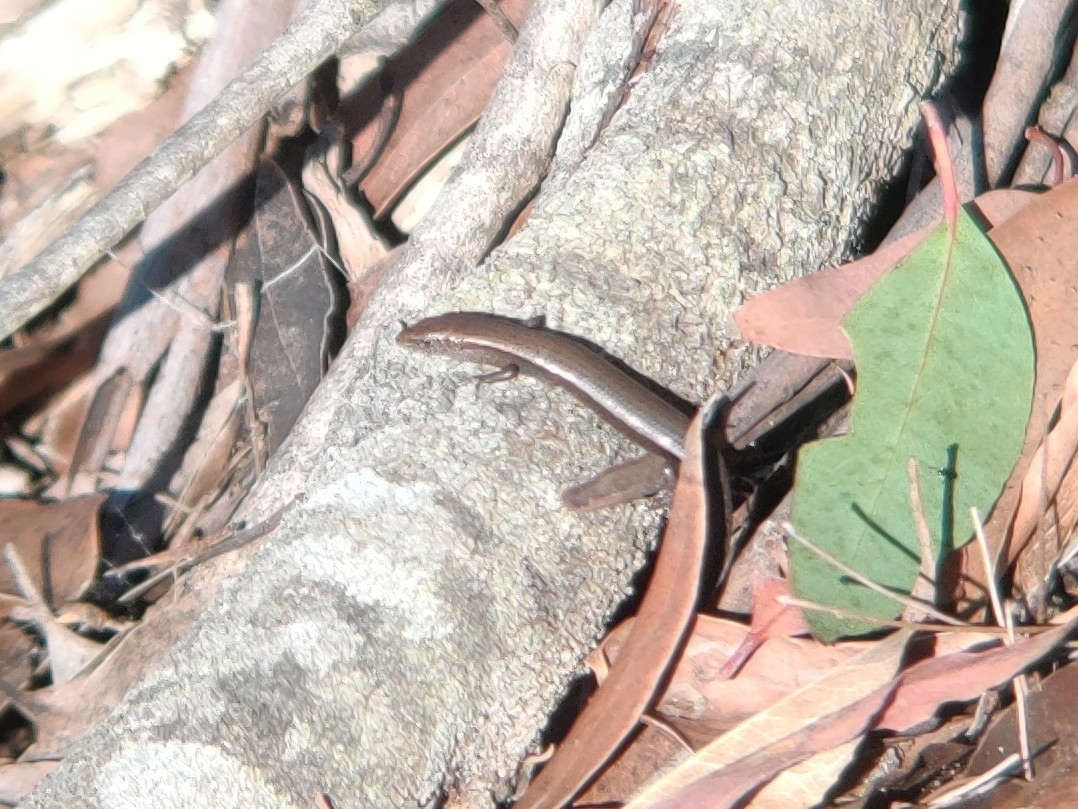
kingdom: Animalia
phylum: Chordata
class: Squamata
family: Scincidae
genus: Lampropholis
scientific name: Lampropholis delicata
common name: Plague skink
